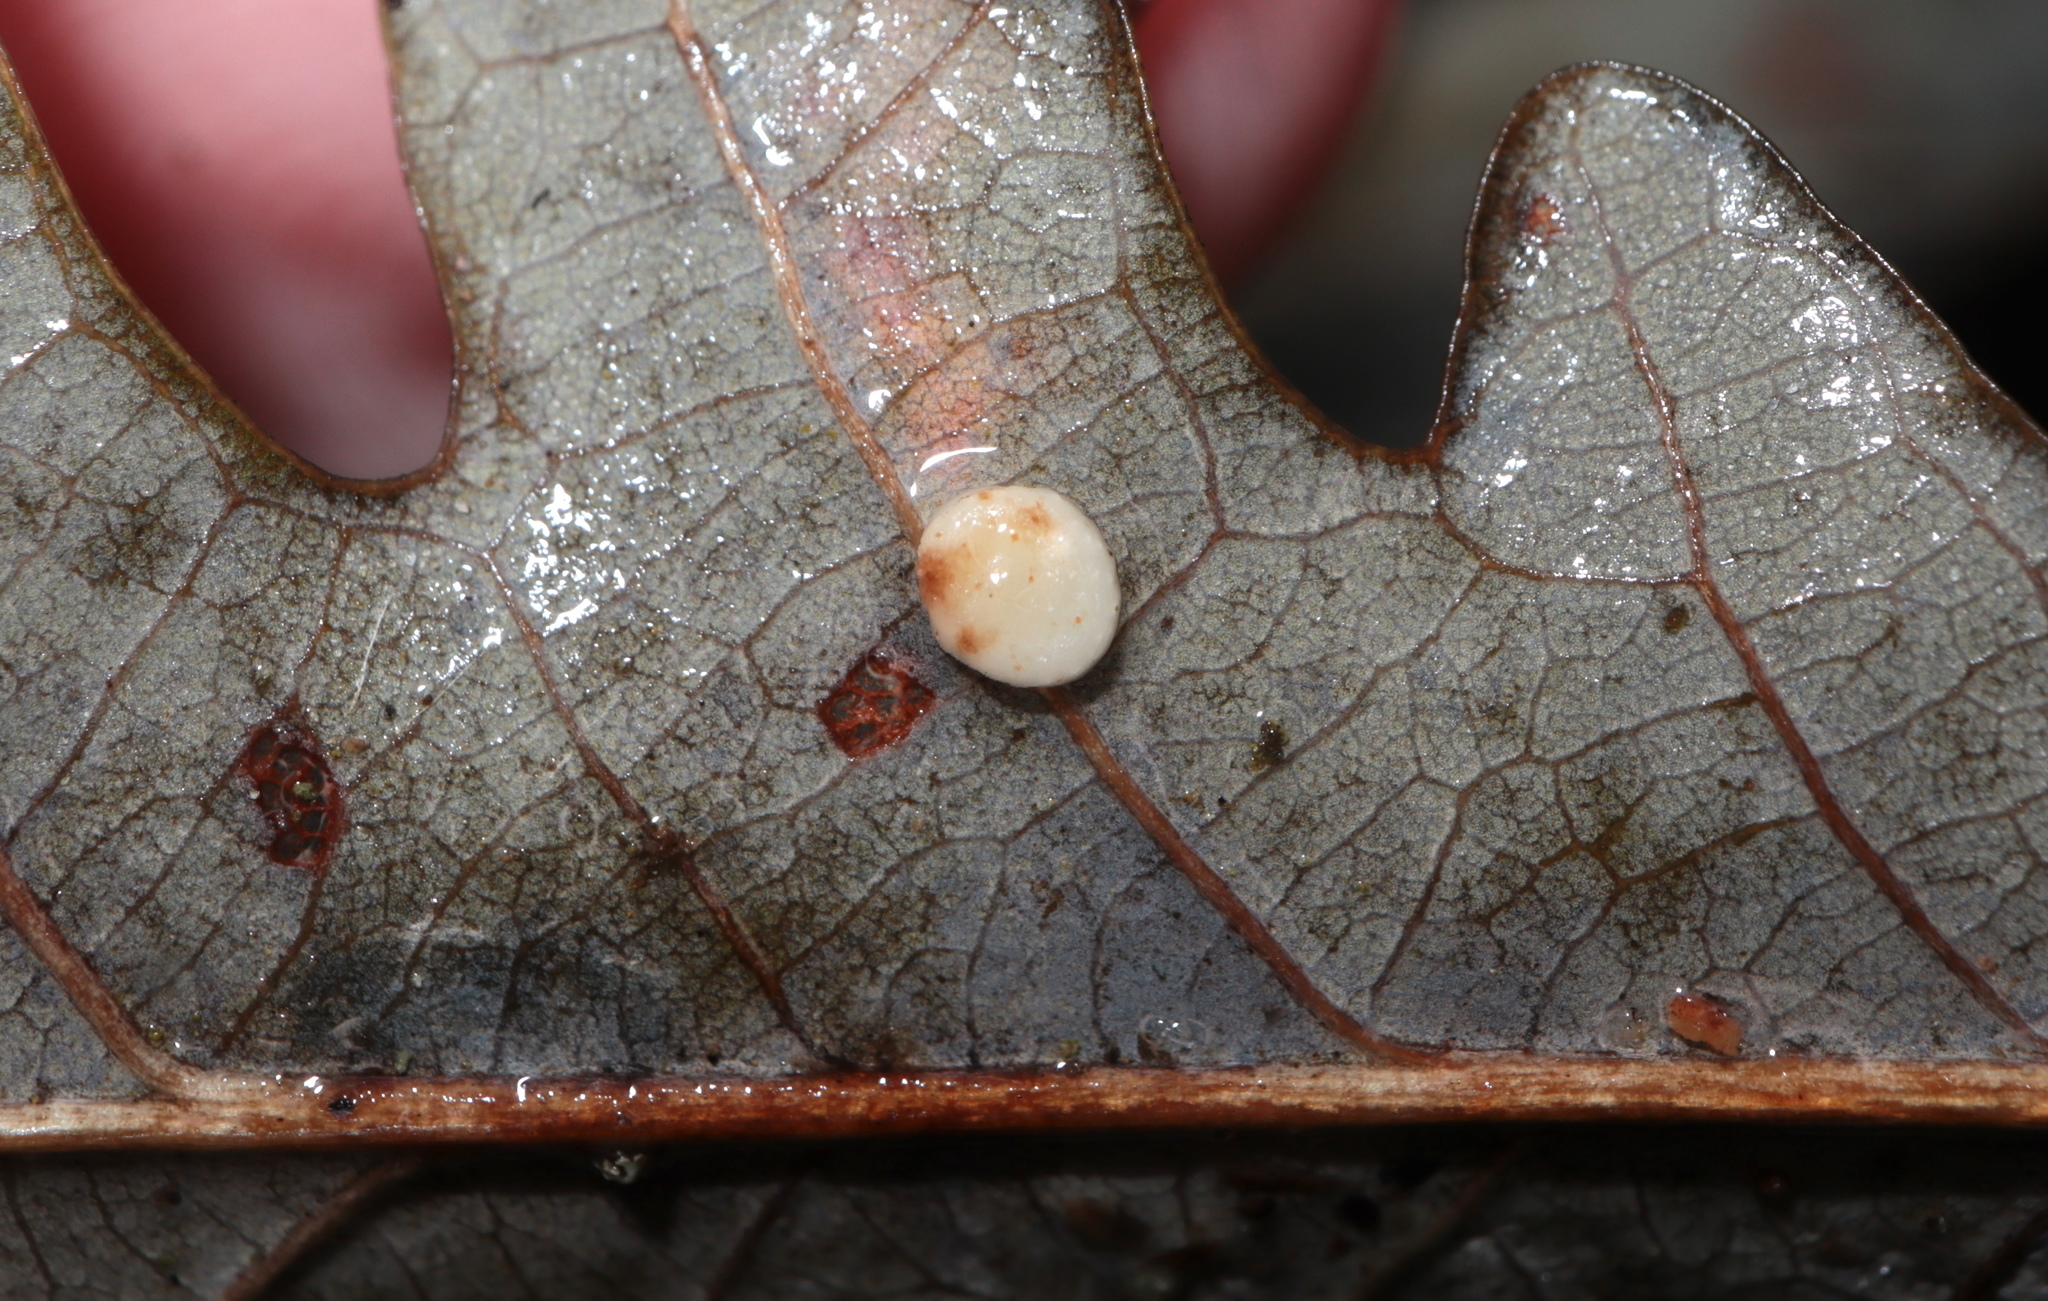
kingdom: Animalia
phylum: Arthropoda
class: Insecta
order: Hymenoptera
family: Cynipidae
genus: Phylloteras
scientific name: Phylloteras
